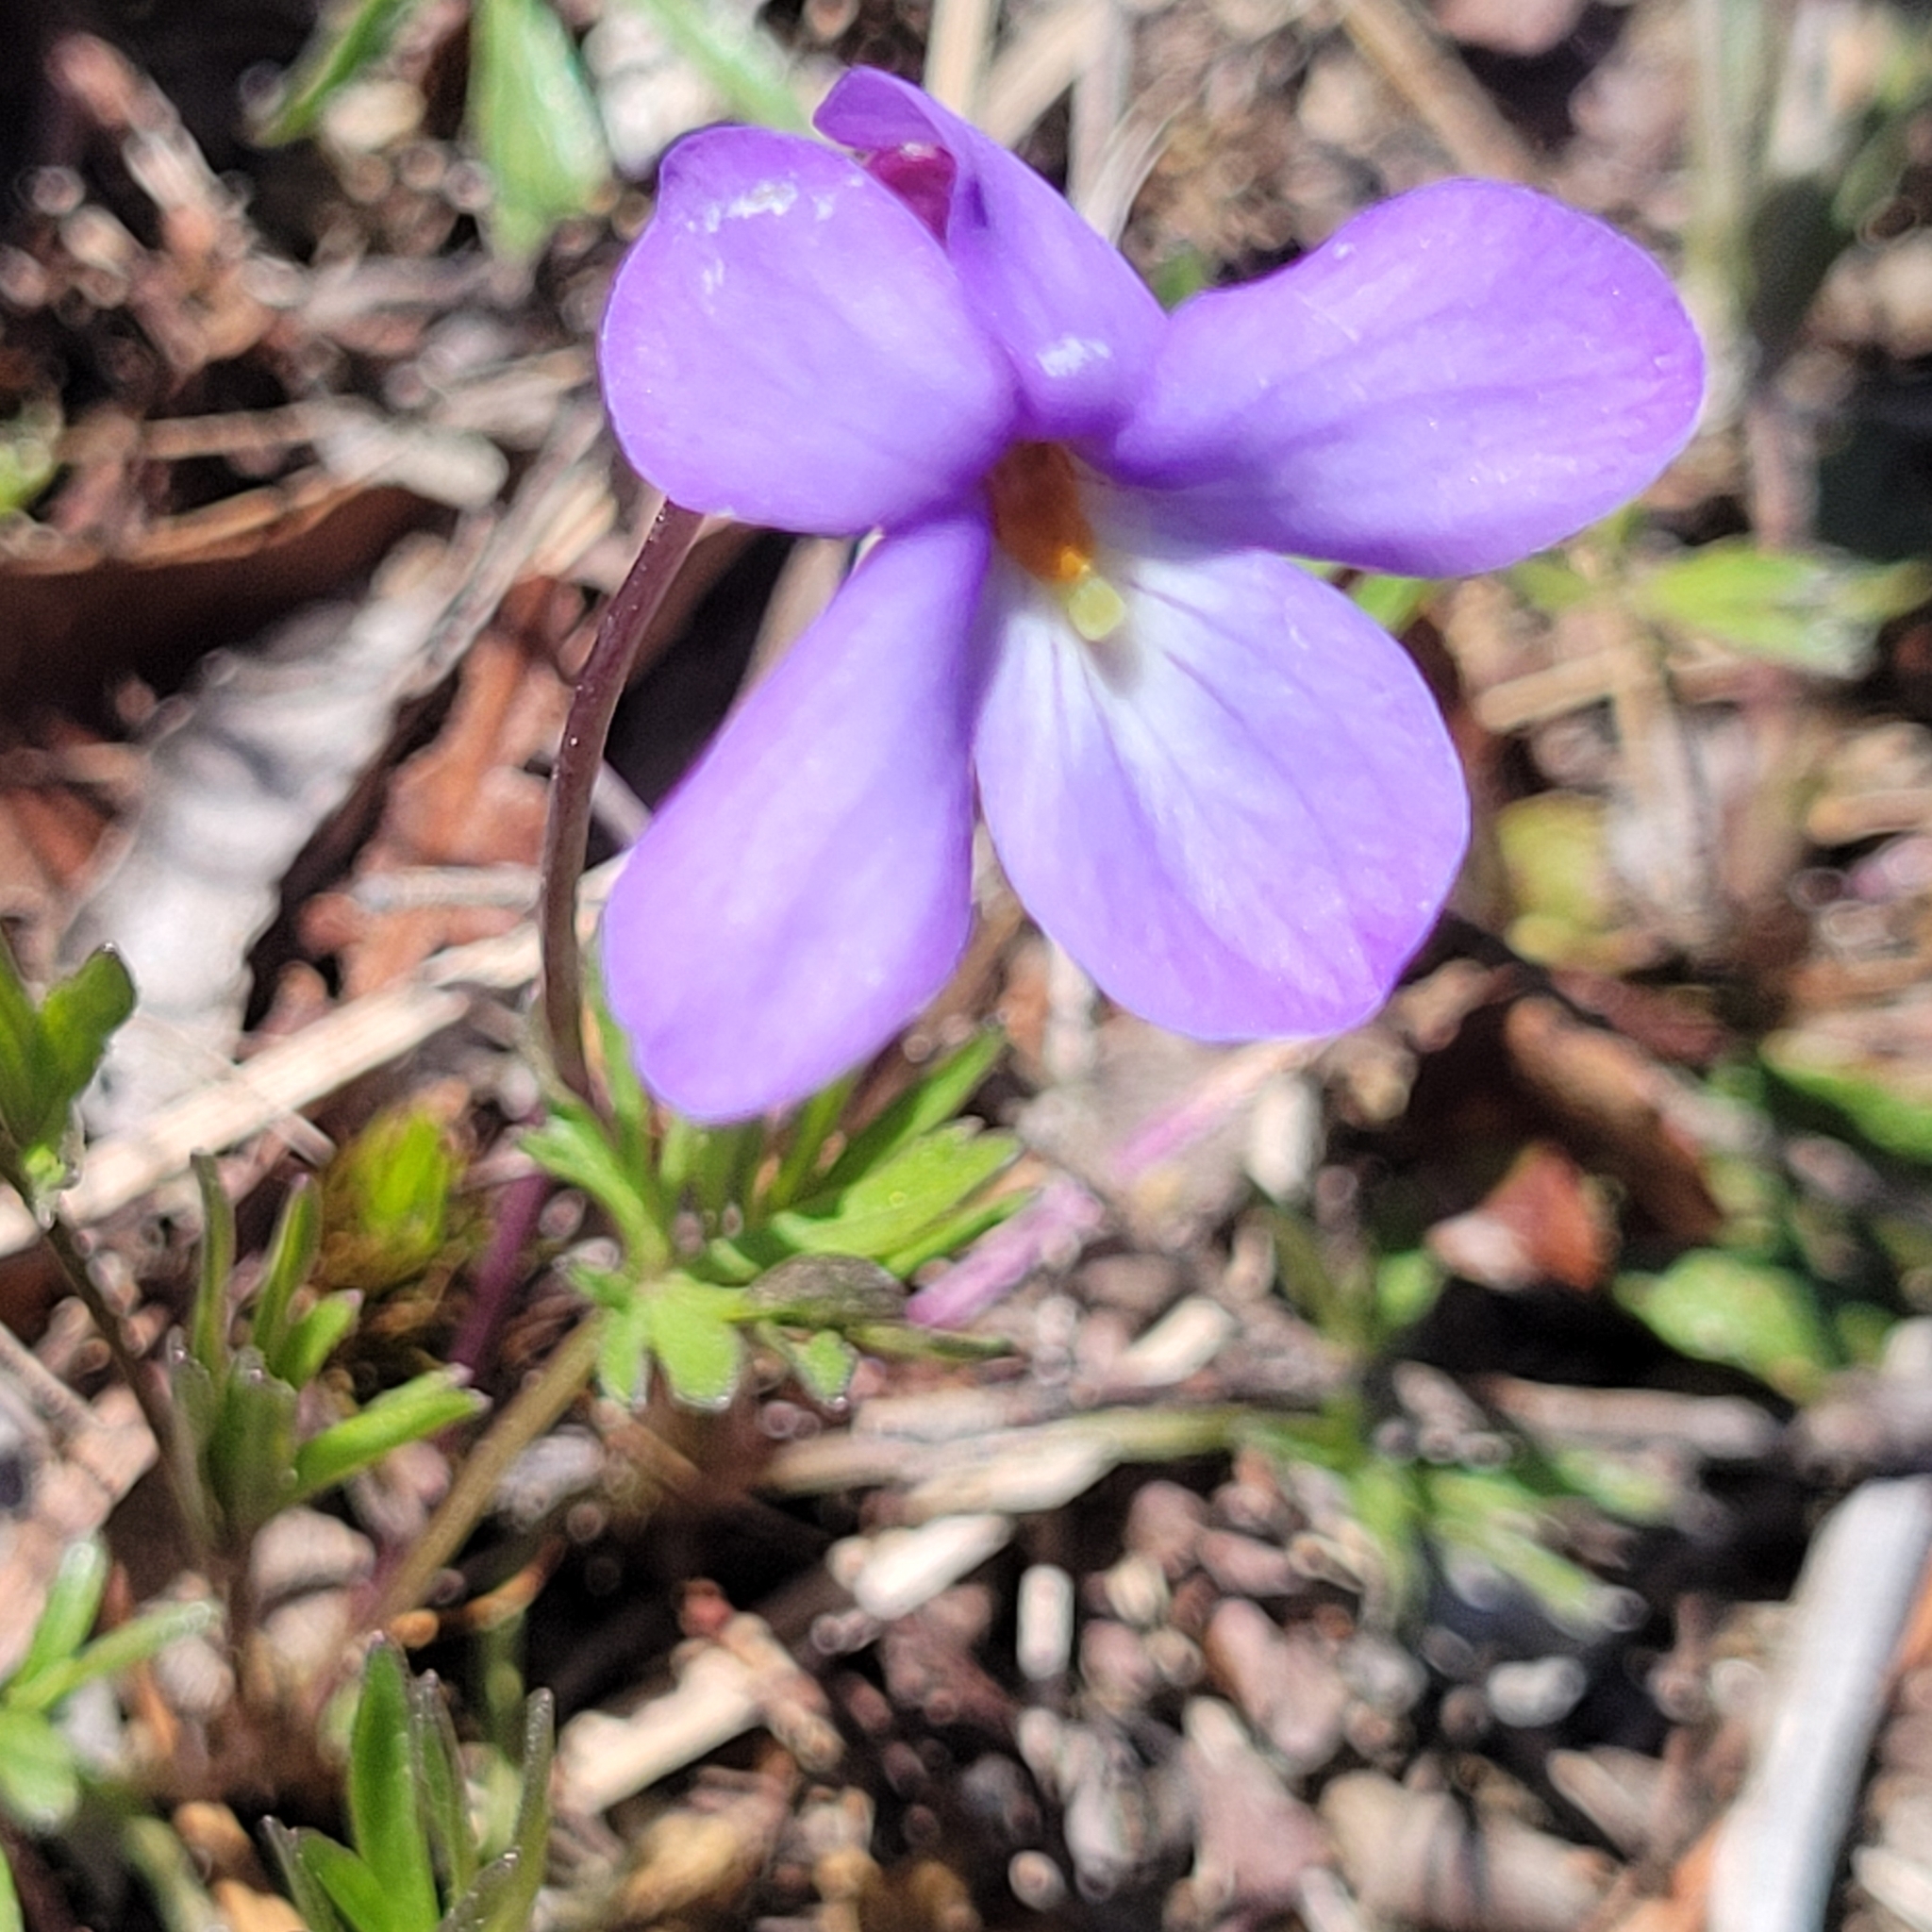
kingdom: Plantae
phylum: Tracheophyta
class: Magnoliopsida
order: Malpighiales
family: Violaceae
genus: Viola
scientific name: Viola pedata
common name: Pansy violet
